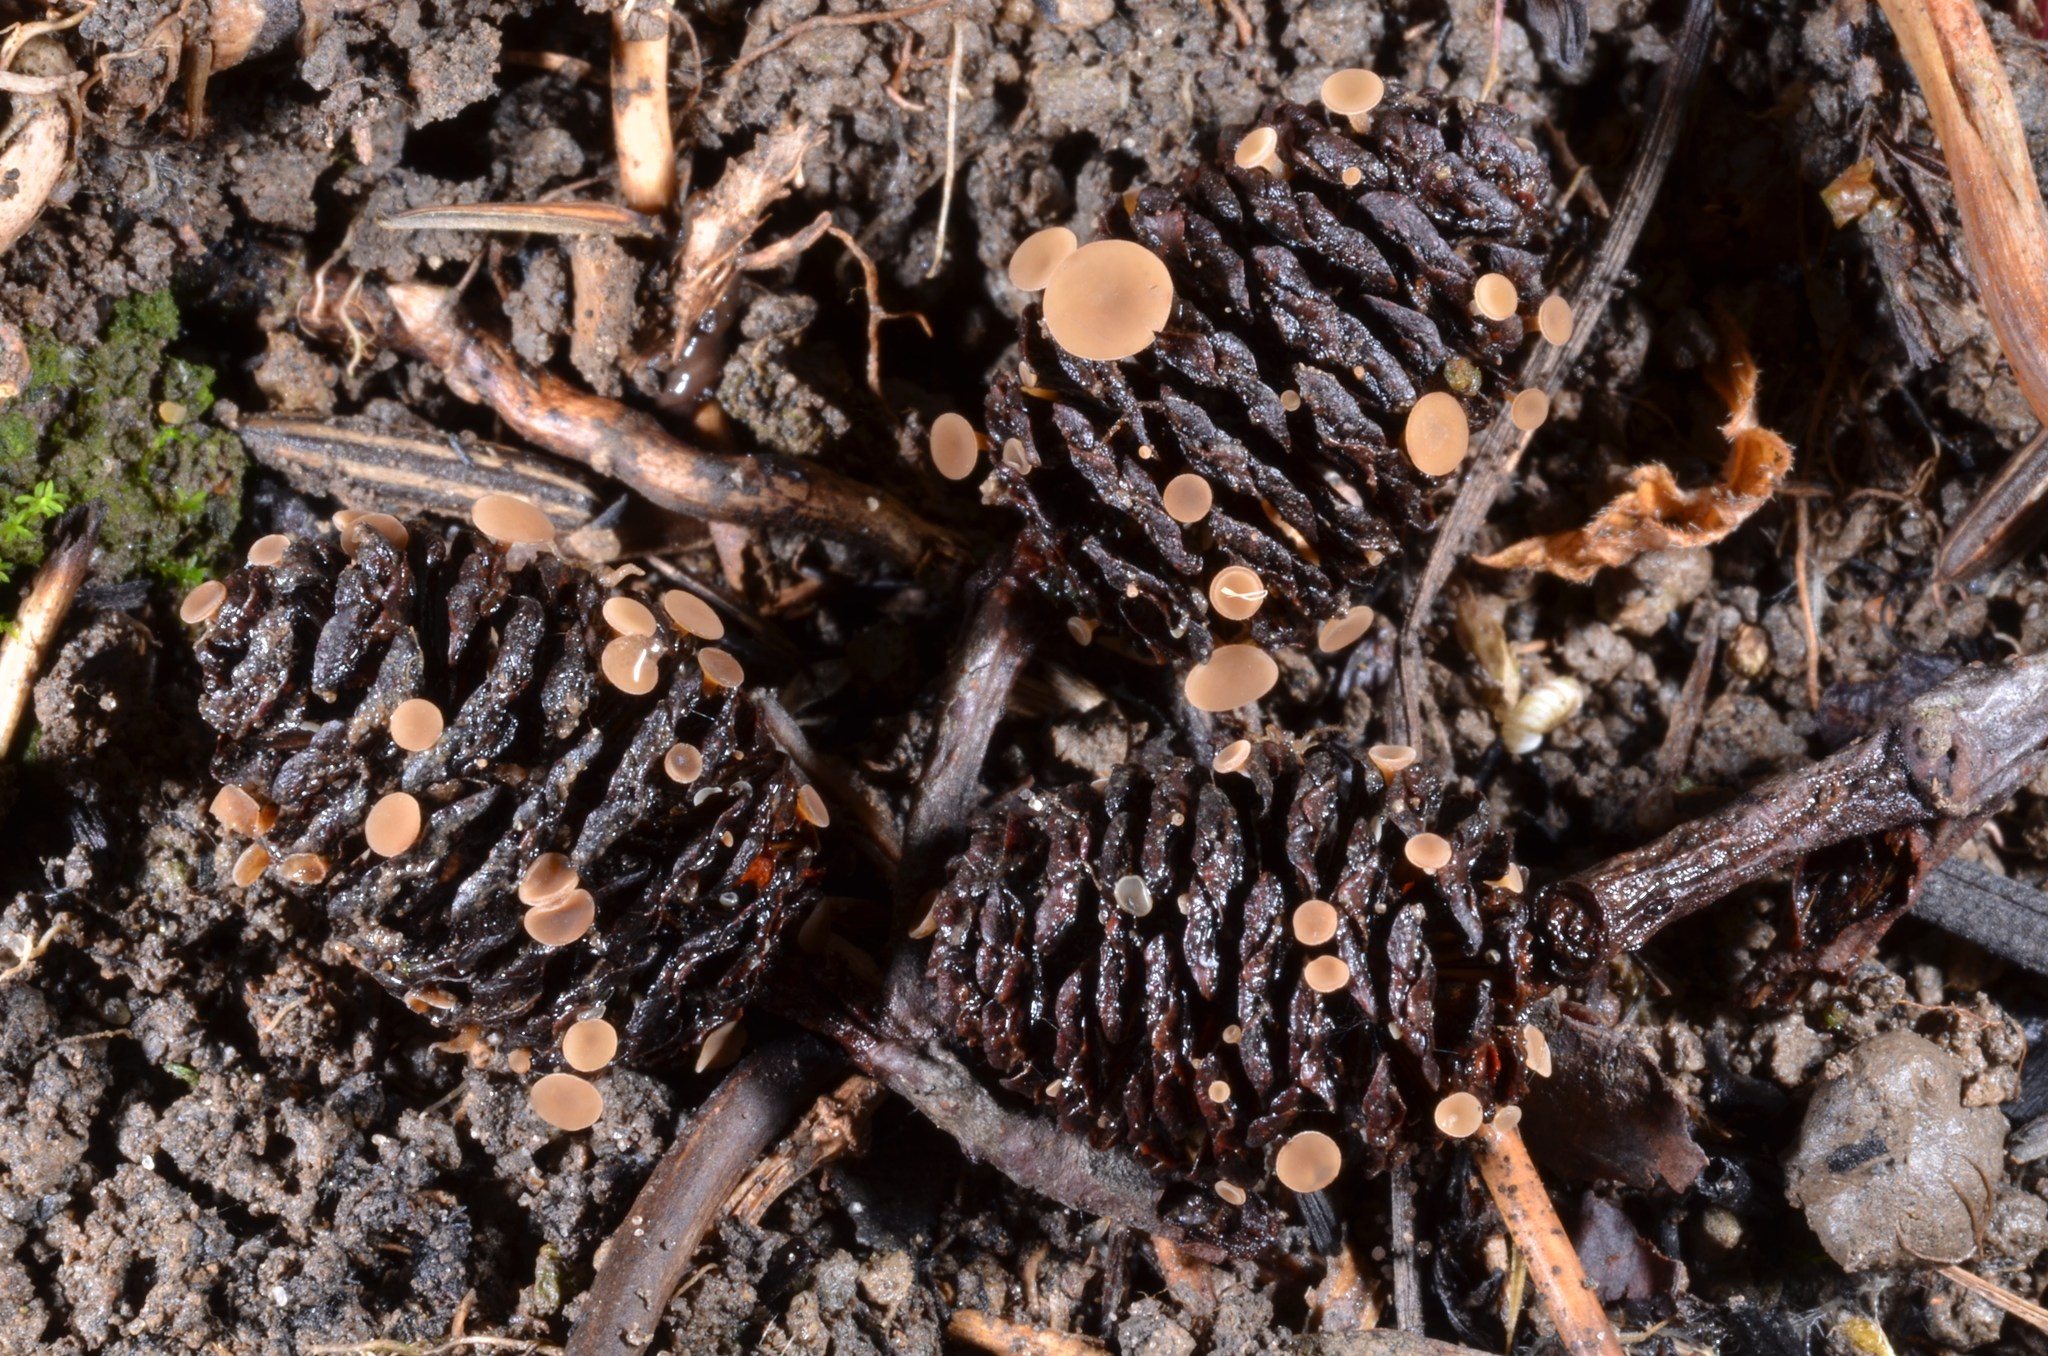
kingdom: Fungi
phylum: Ascomycota
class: Leotiomycetes
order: Helotiales
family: Sclerotiniaceae
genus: Ciboria
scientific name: Ciboria viridifusca
